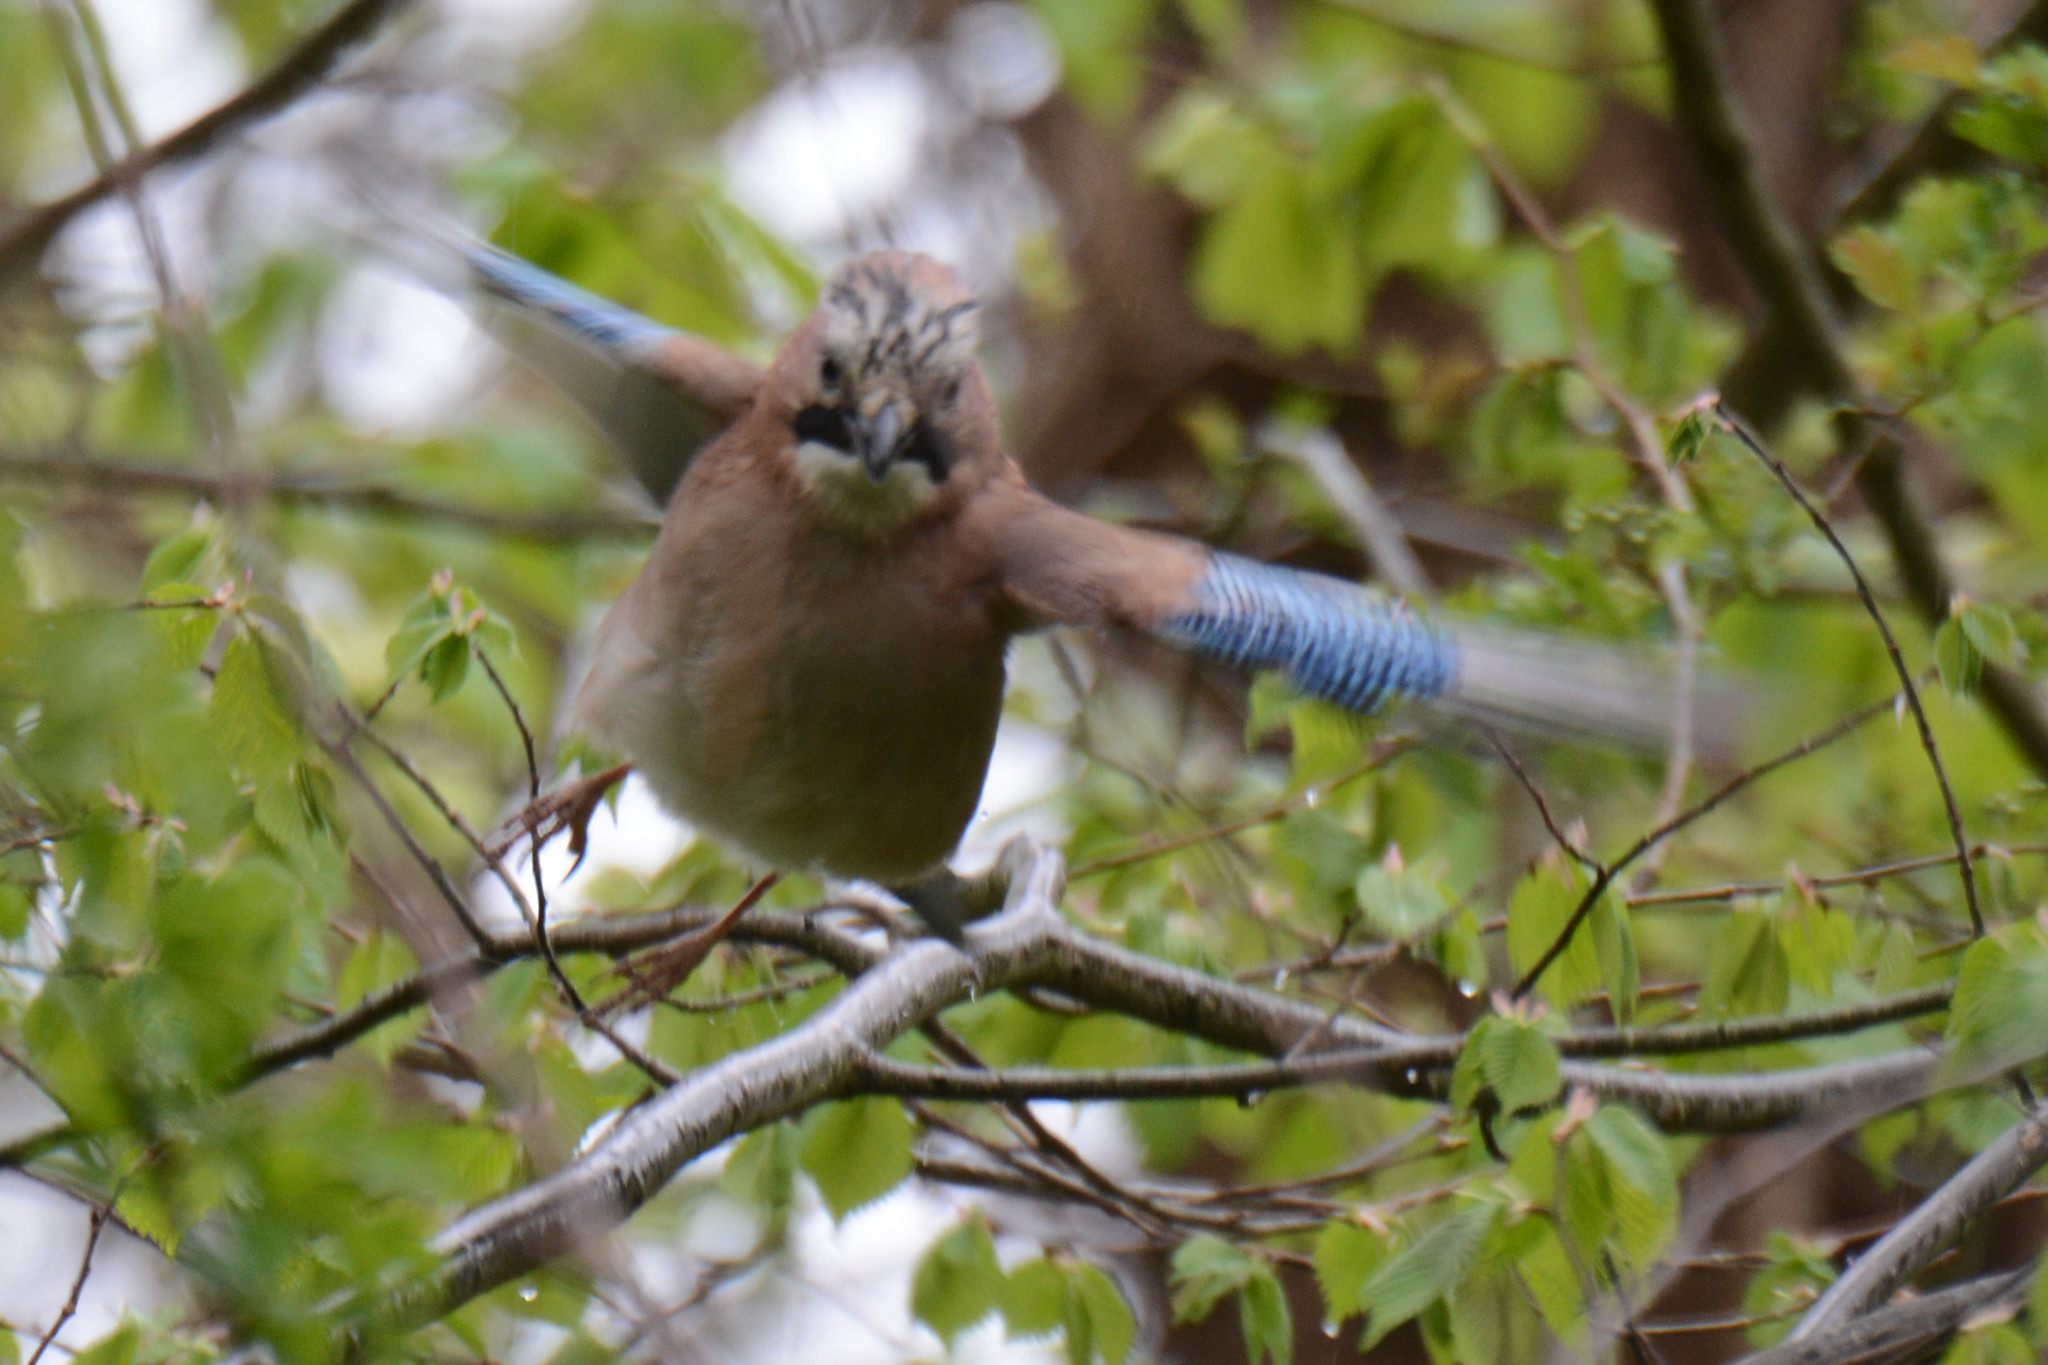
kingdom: Animalia
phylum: Chordata
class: Aves
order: Passeriformes
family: Corvidae
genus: Garrulus
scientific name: Garrulus glandarius
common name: Eurasian jay
